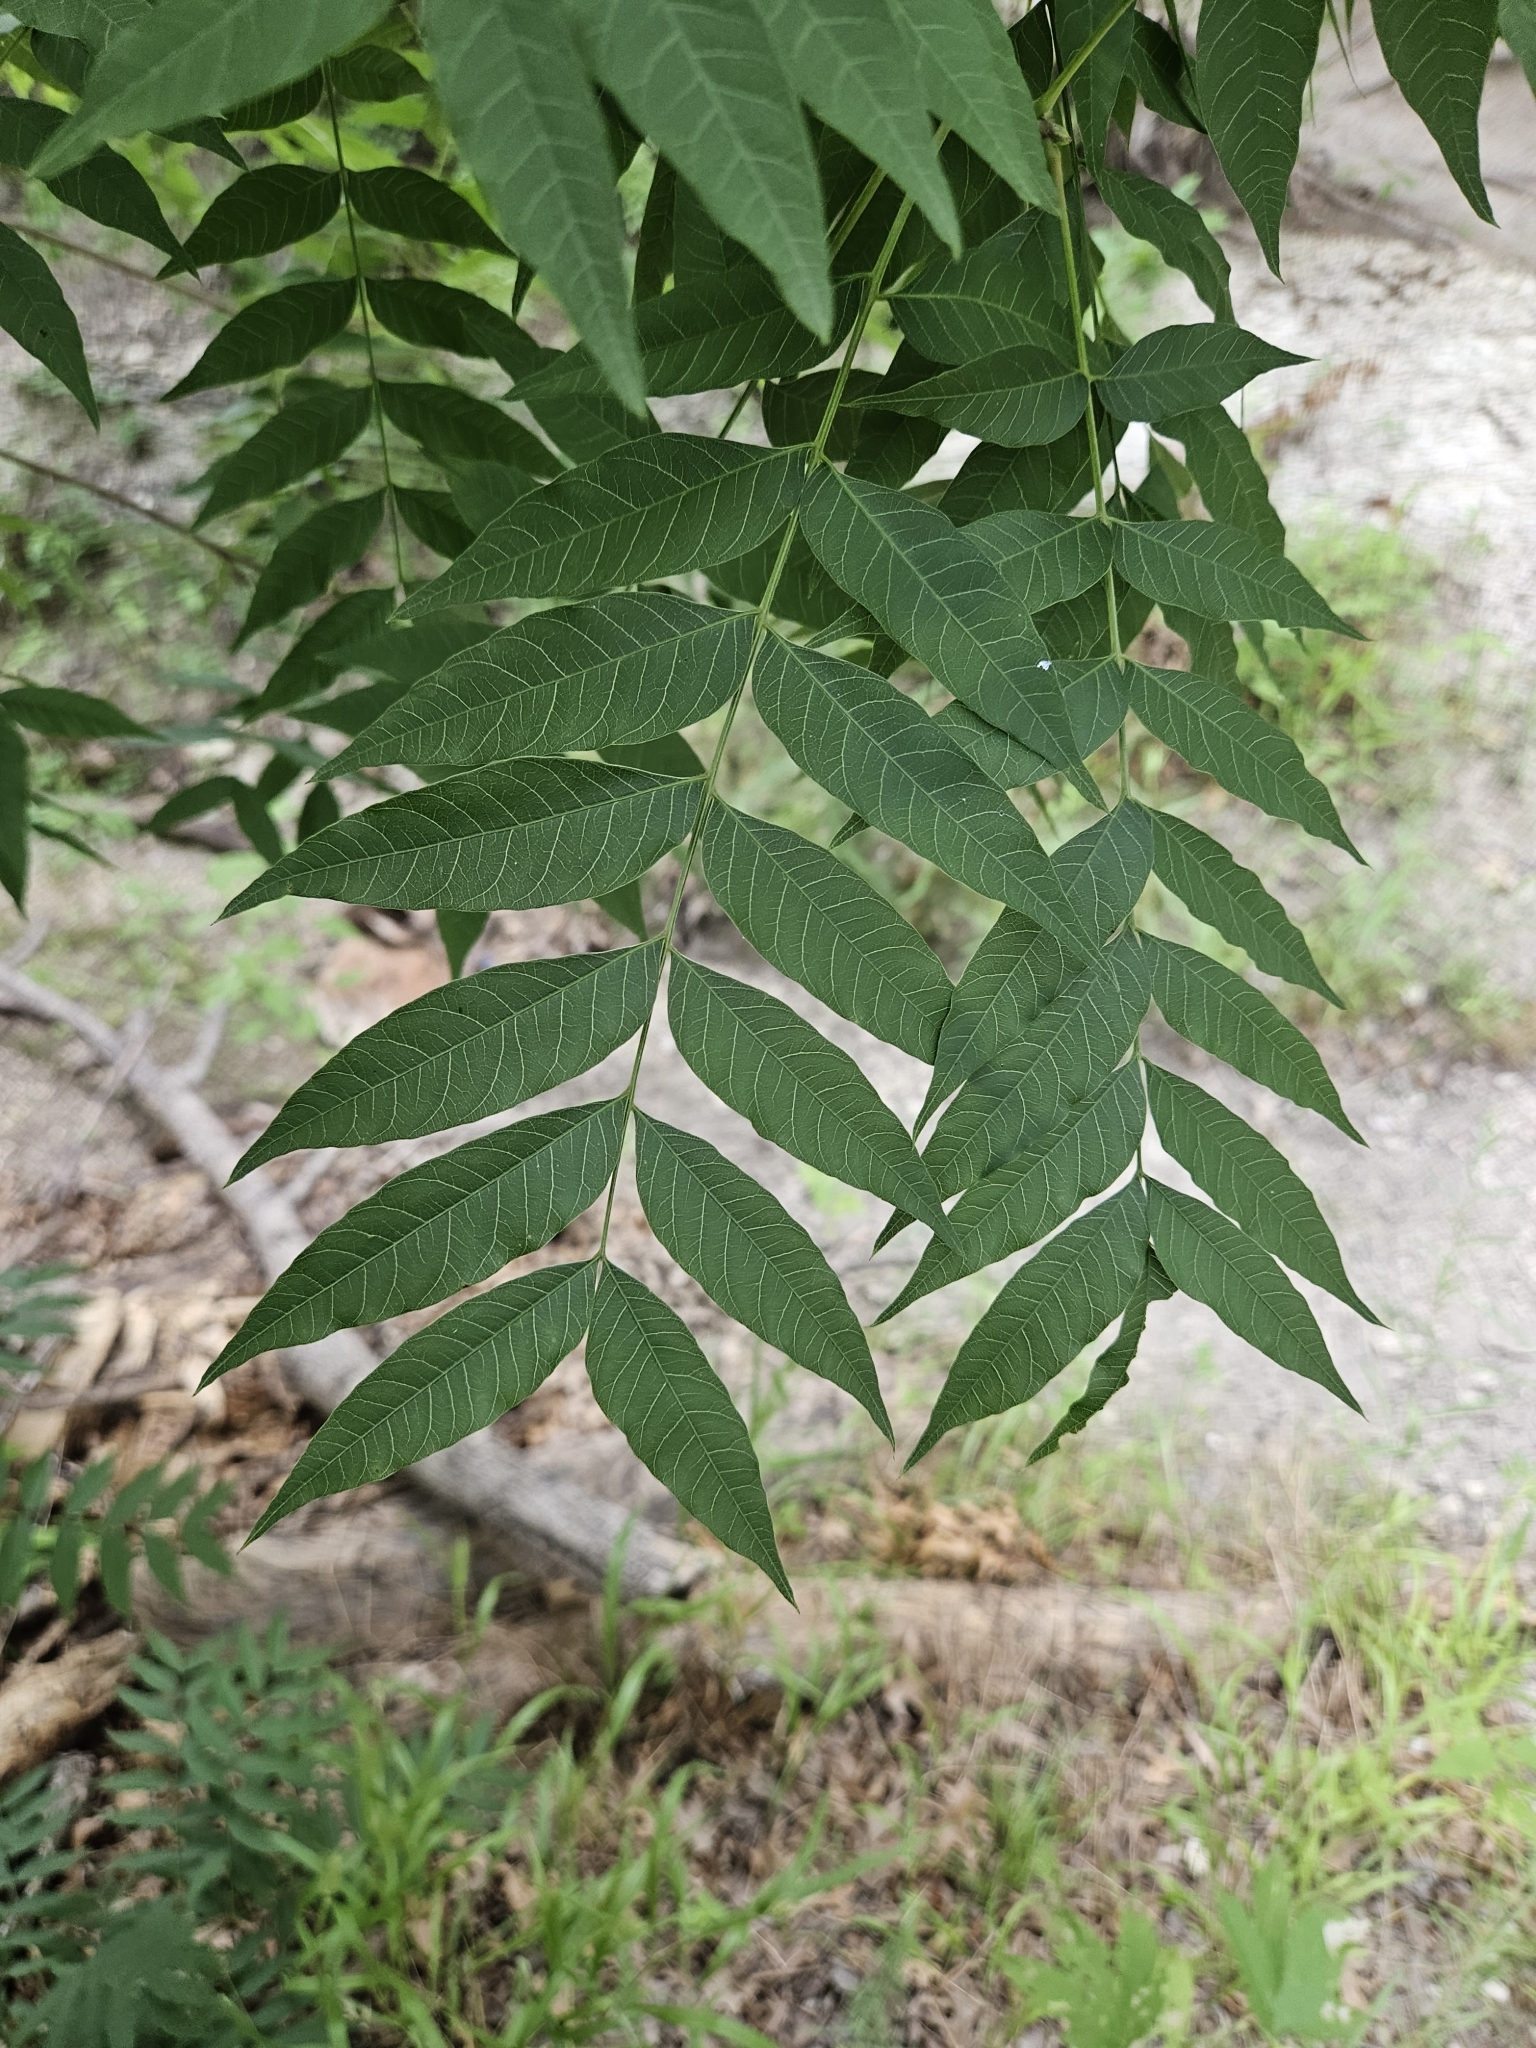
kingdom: Plantae
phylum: Tracheophyta
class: Magnoliopsida
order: Sapindales
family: Anacardiaceae
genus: Pistacia
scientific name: Pistacia chinensis
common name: Chinese pistache
